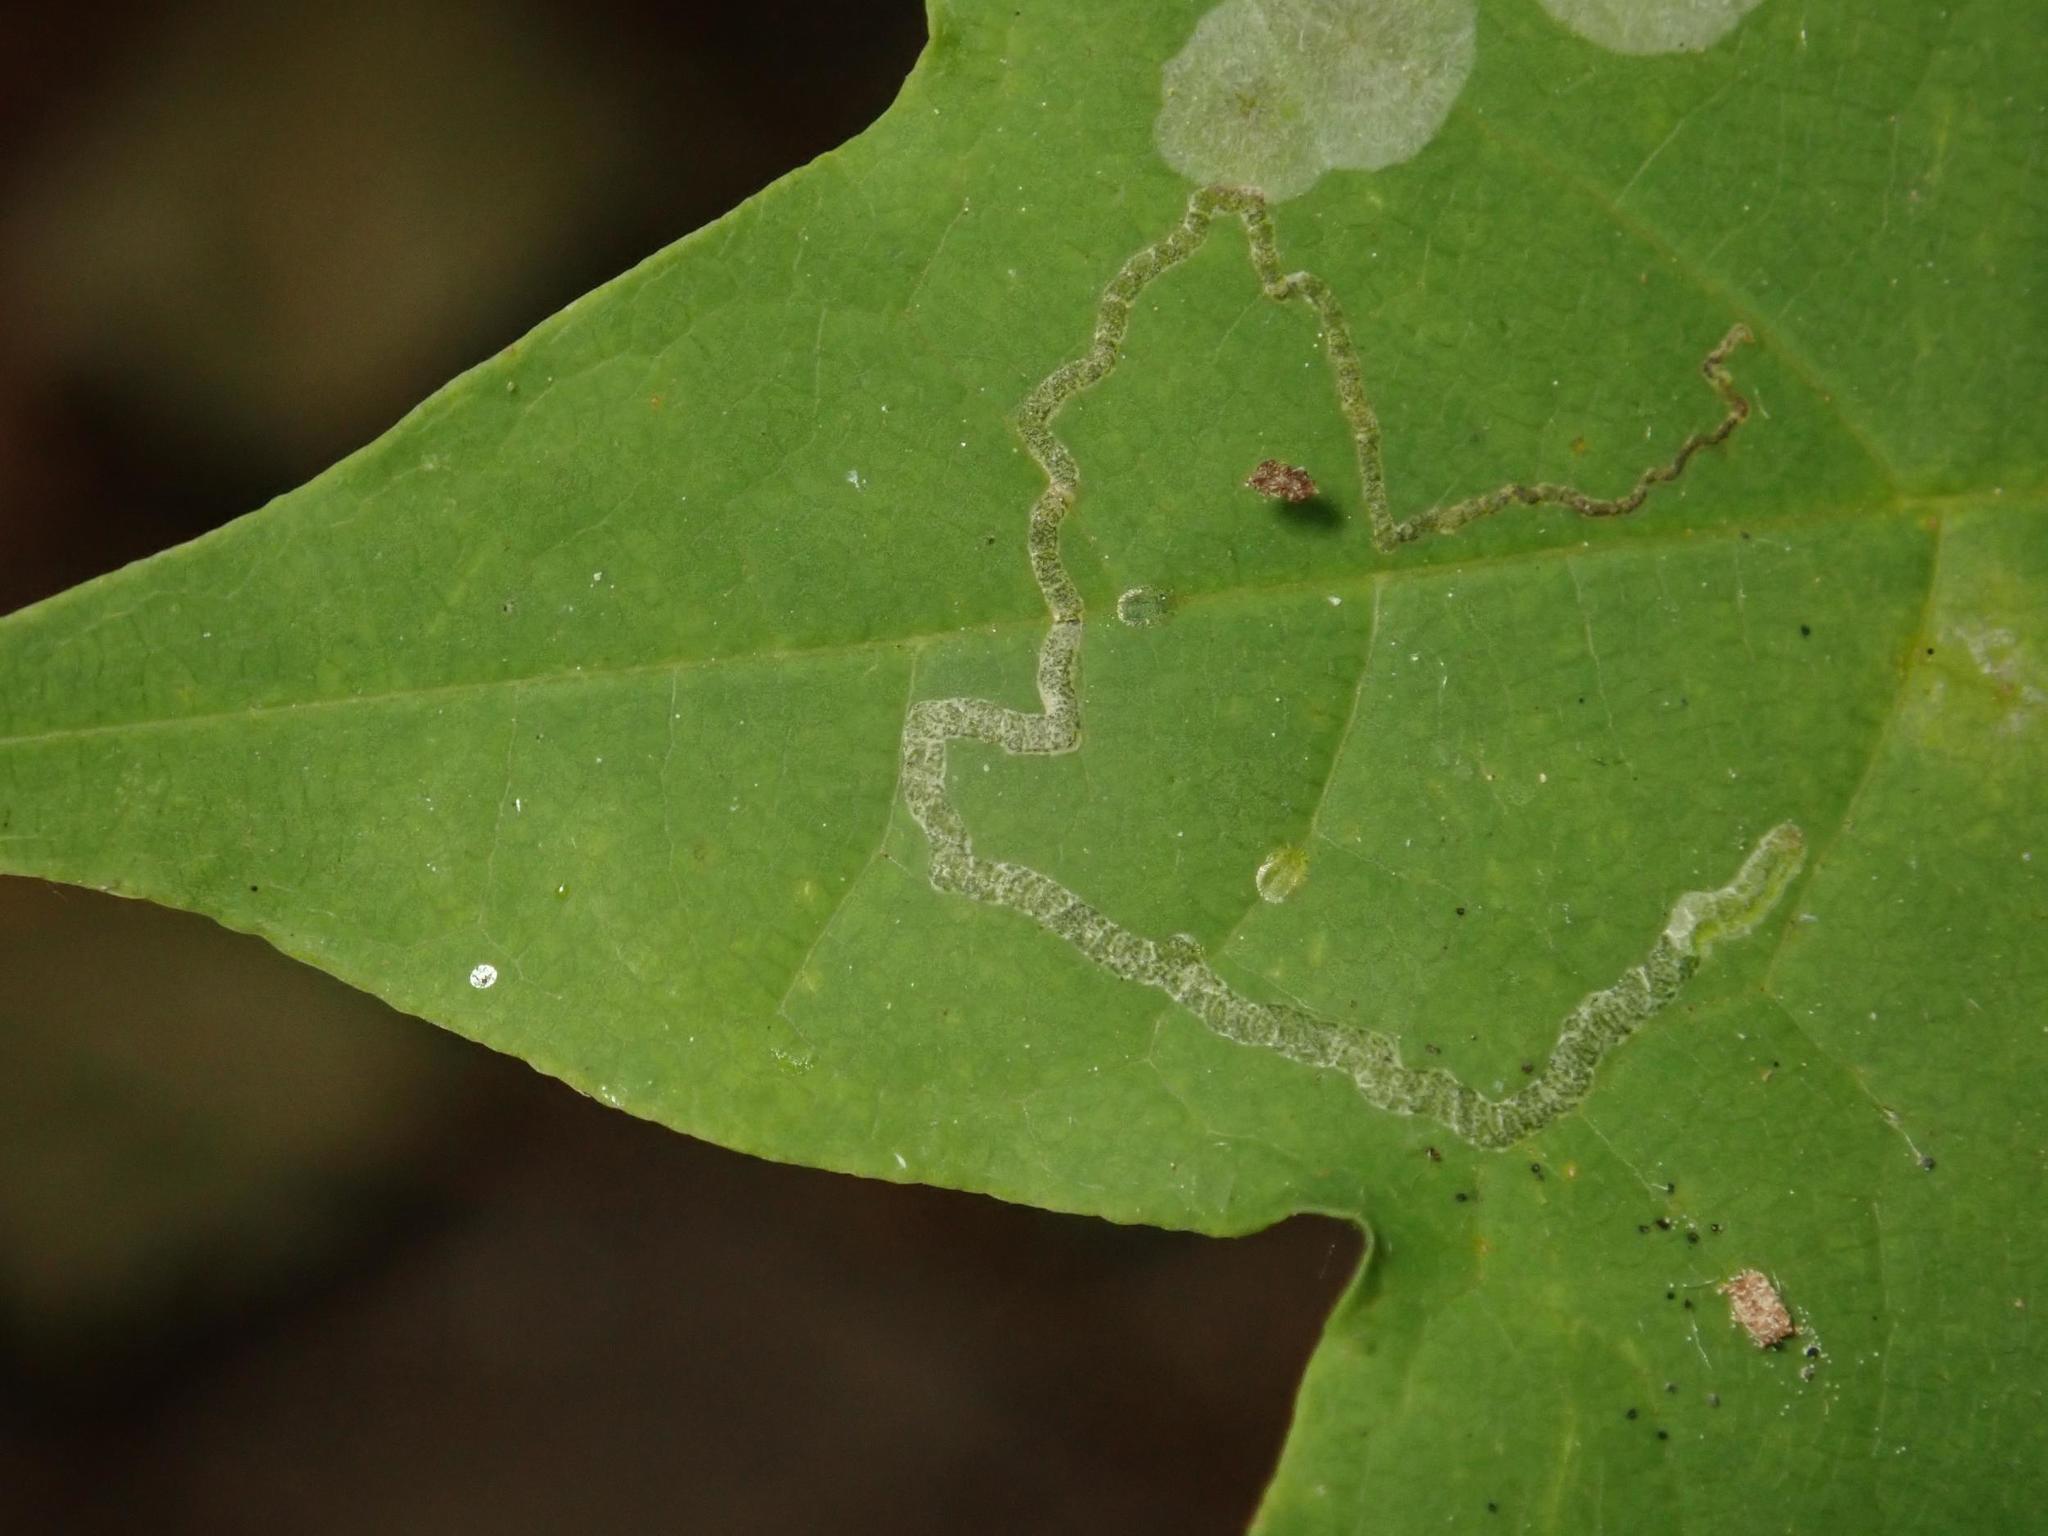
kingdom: Animalia
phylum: Arthropoda
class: Insecta
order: Lepidoptera
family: Nepticulidae
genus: Stigmella
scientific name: Stigmella aceris
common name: Scarce maple pigmy
